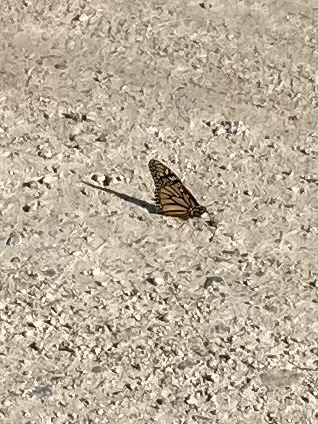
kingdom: Animalia
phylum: Arthropoda
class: Insecta
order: Lepidoptera
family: Nymphalidae
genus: Danaus
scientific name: Danaus plexippus
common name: Monarch
